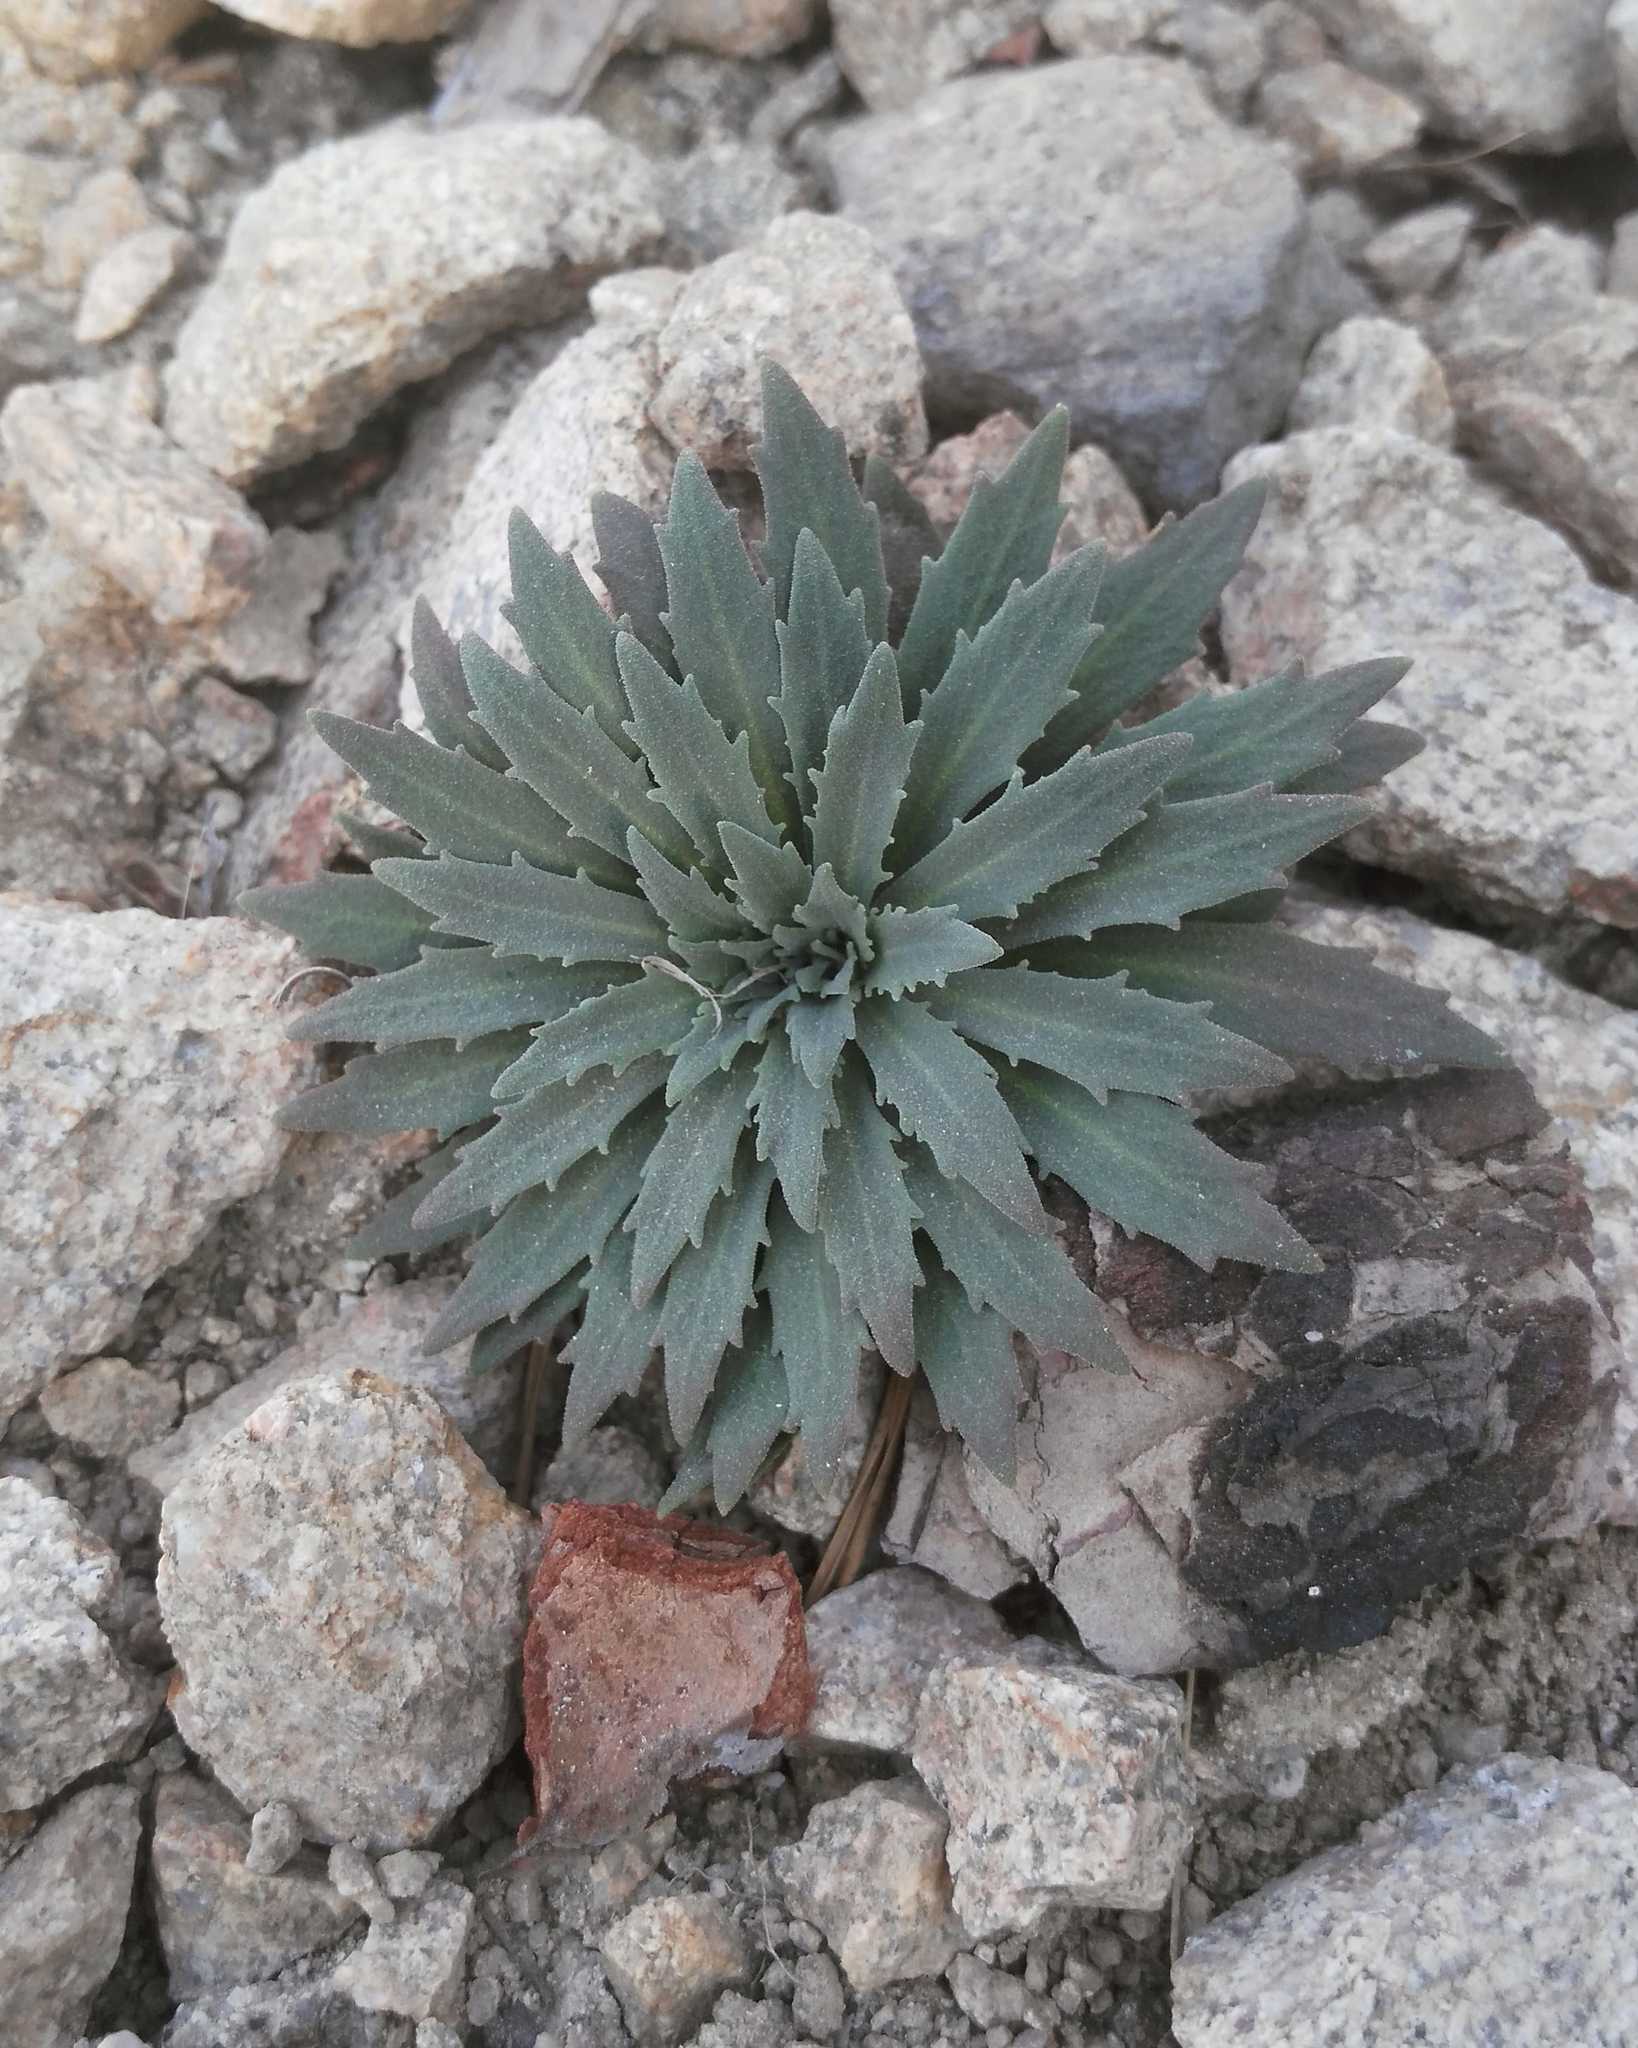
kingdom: Plantae
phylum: Tracheophyta
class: Magnoliopsida
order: Ericales
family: Primulaceae
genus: Androsace
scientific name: Androsace septentrionalis
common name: Hairy northern fairy-candelabra
